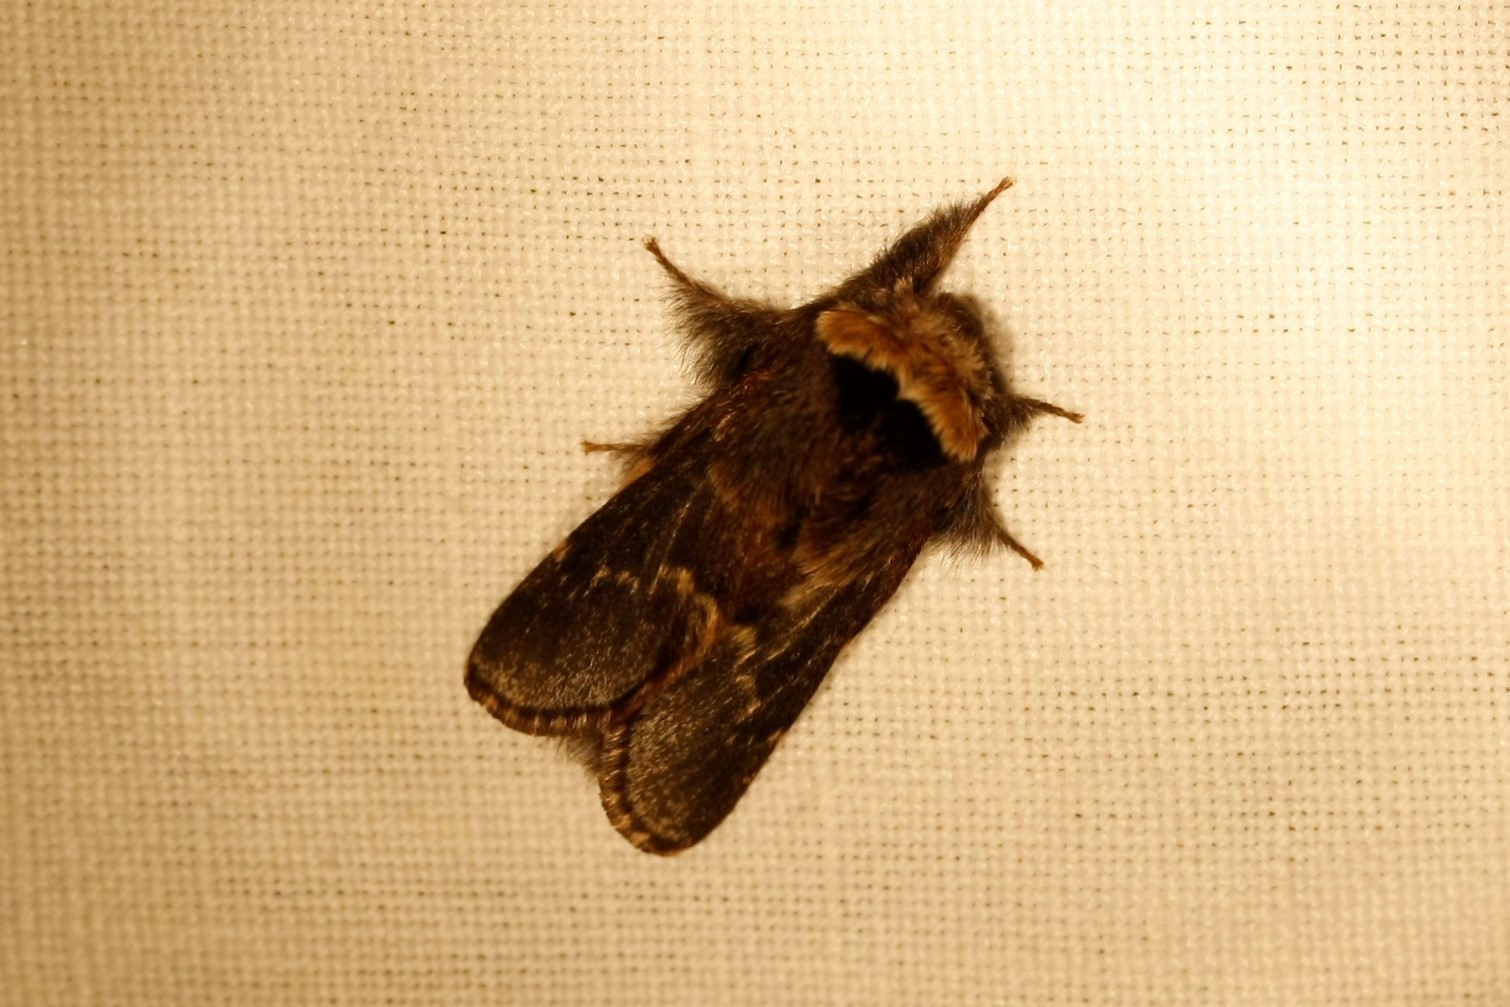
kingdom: Animalia
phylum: Arthropoda
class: Insecta
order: Lepidoptera
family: Lasiocampidae
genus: Poecilocampa
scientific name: Poecilocampa populi
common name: December moth
